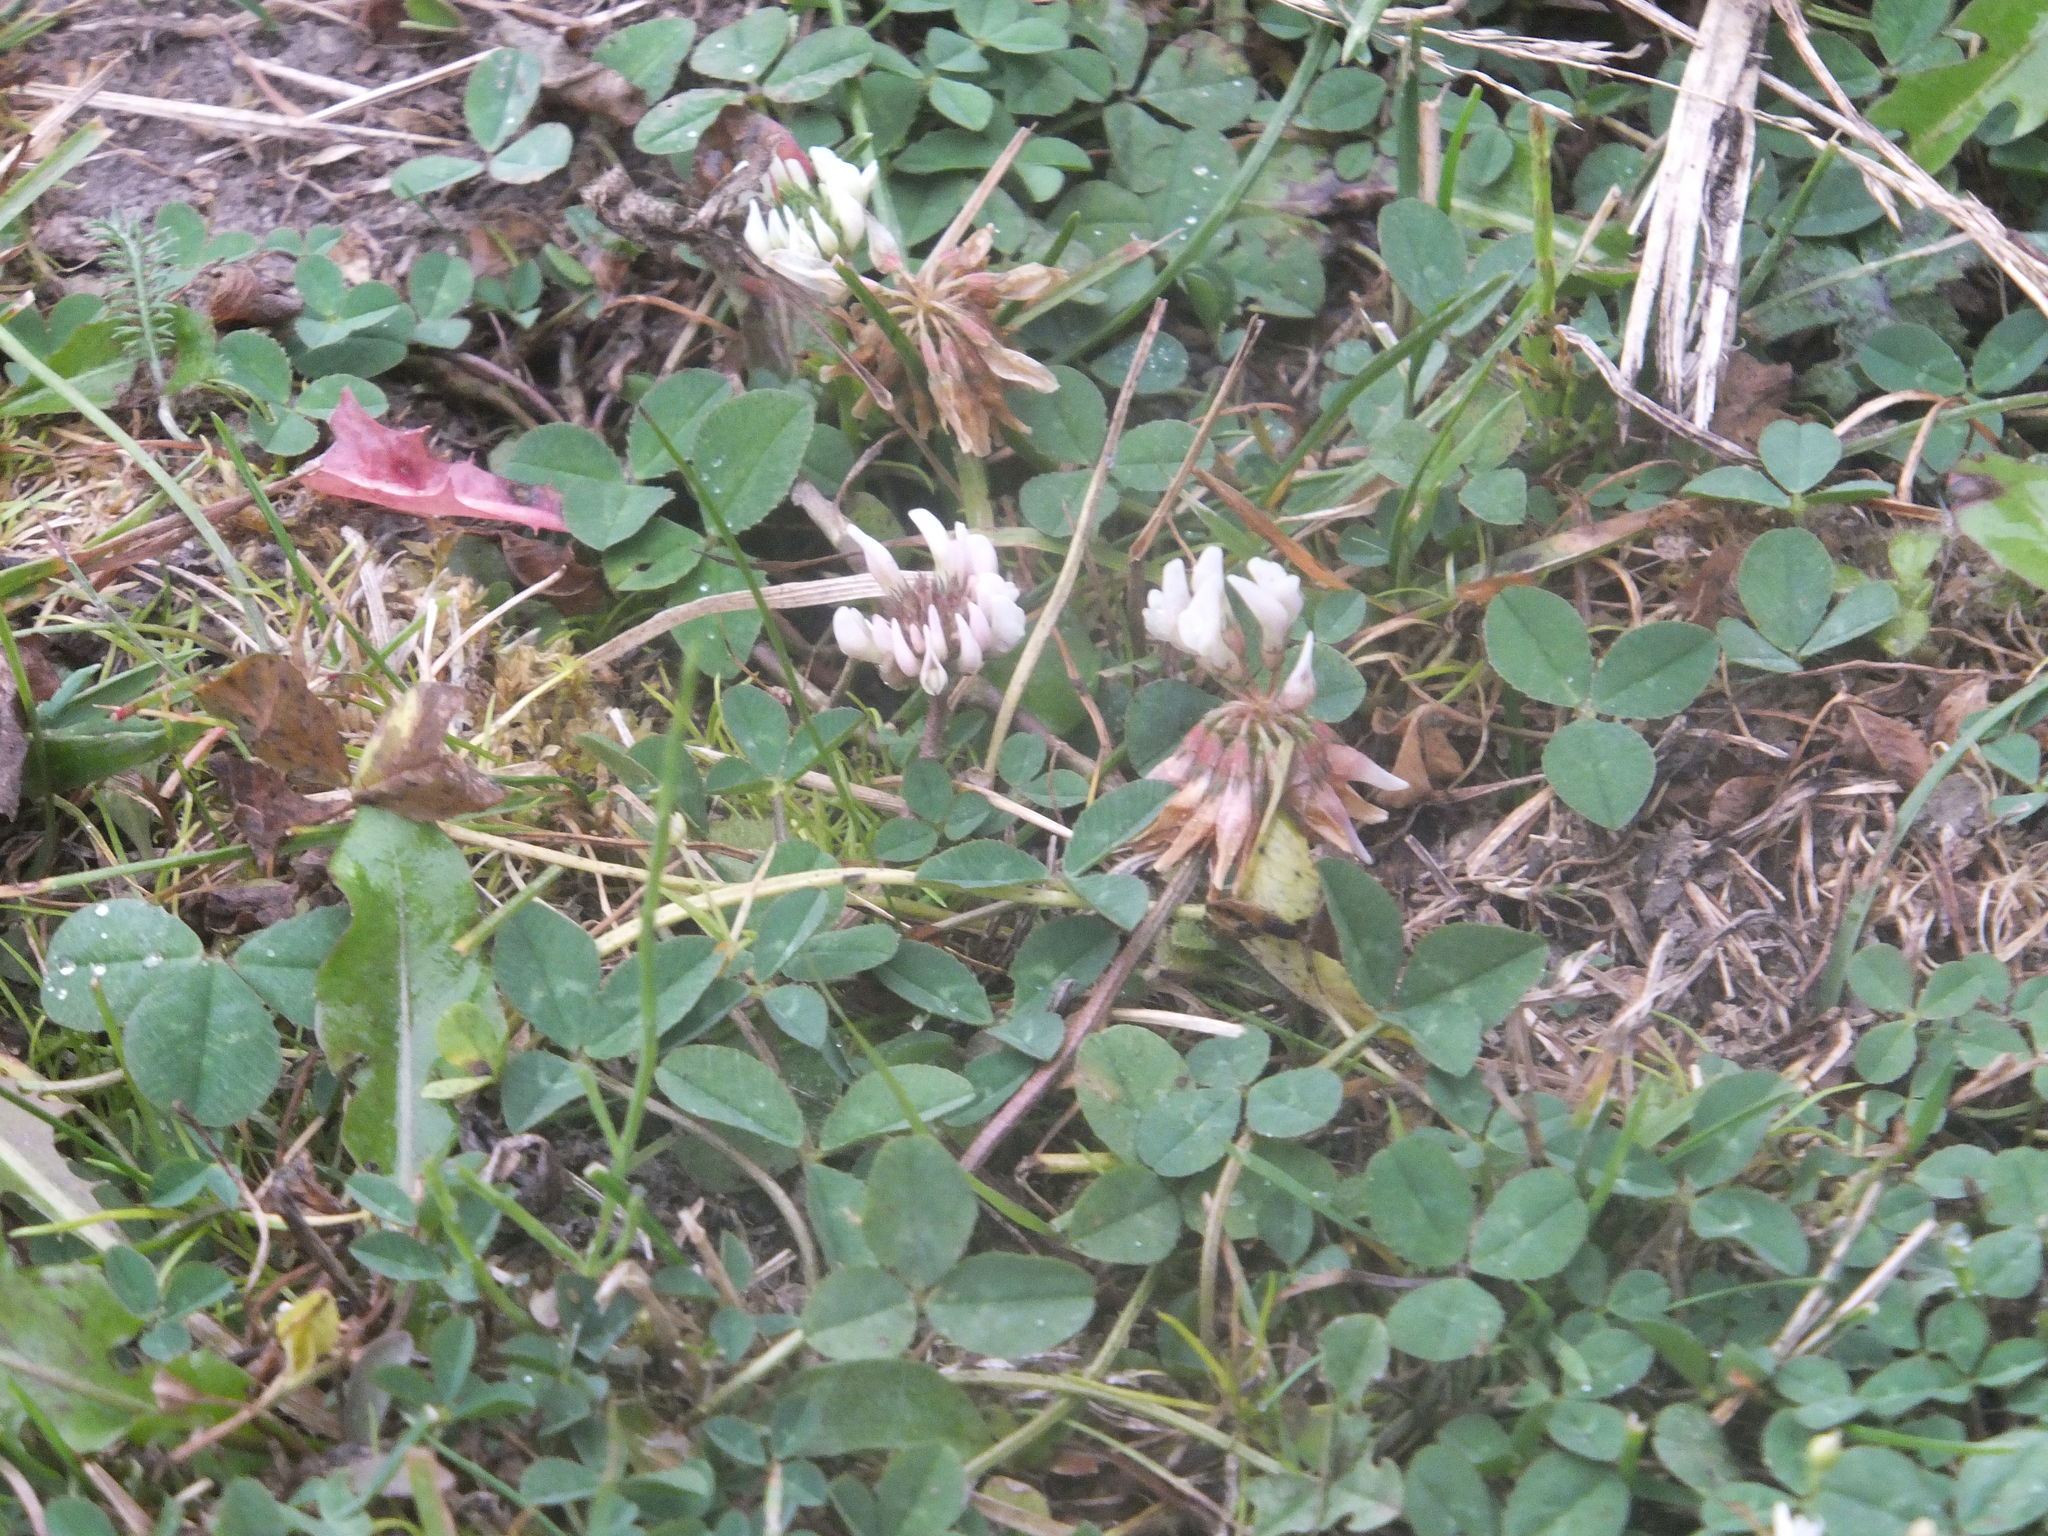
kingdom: Plantae
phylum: Tracheophyta
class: Magnoliopsida
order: Fabales
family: Fabaceae
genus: Trifolium
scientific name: Trifolium repens
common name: White clover
